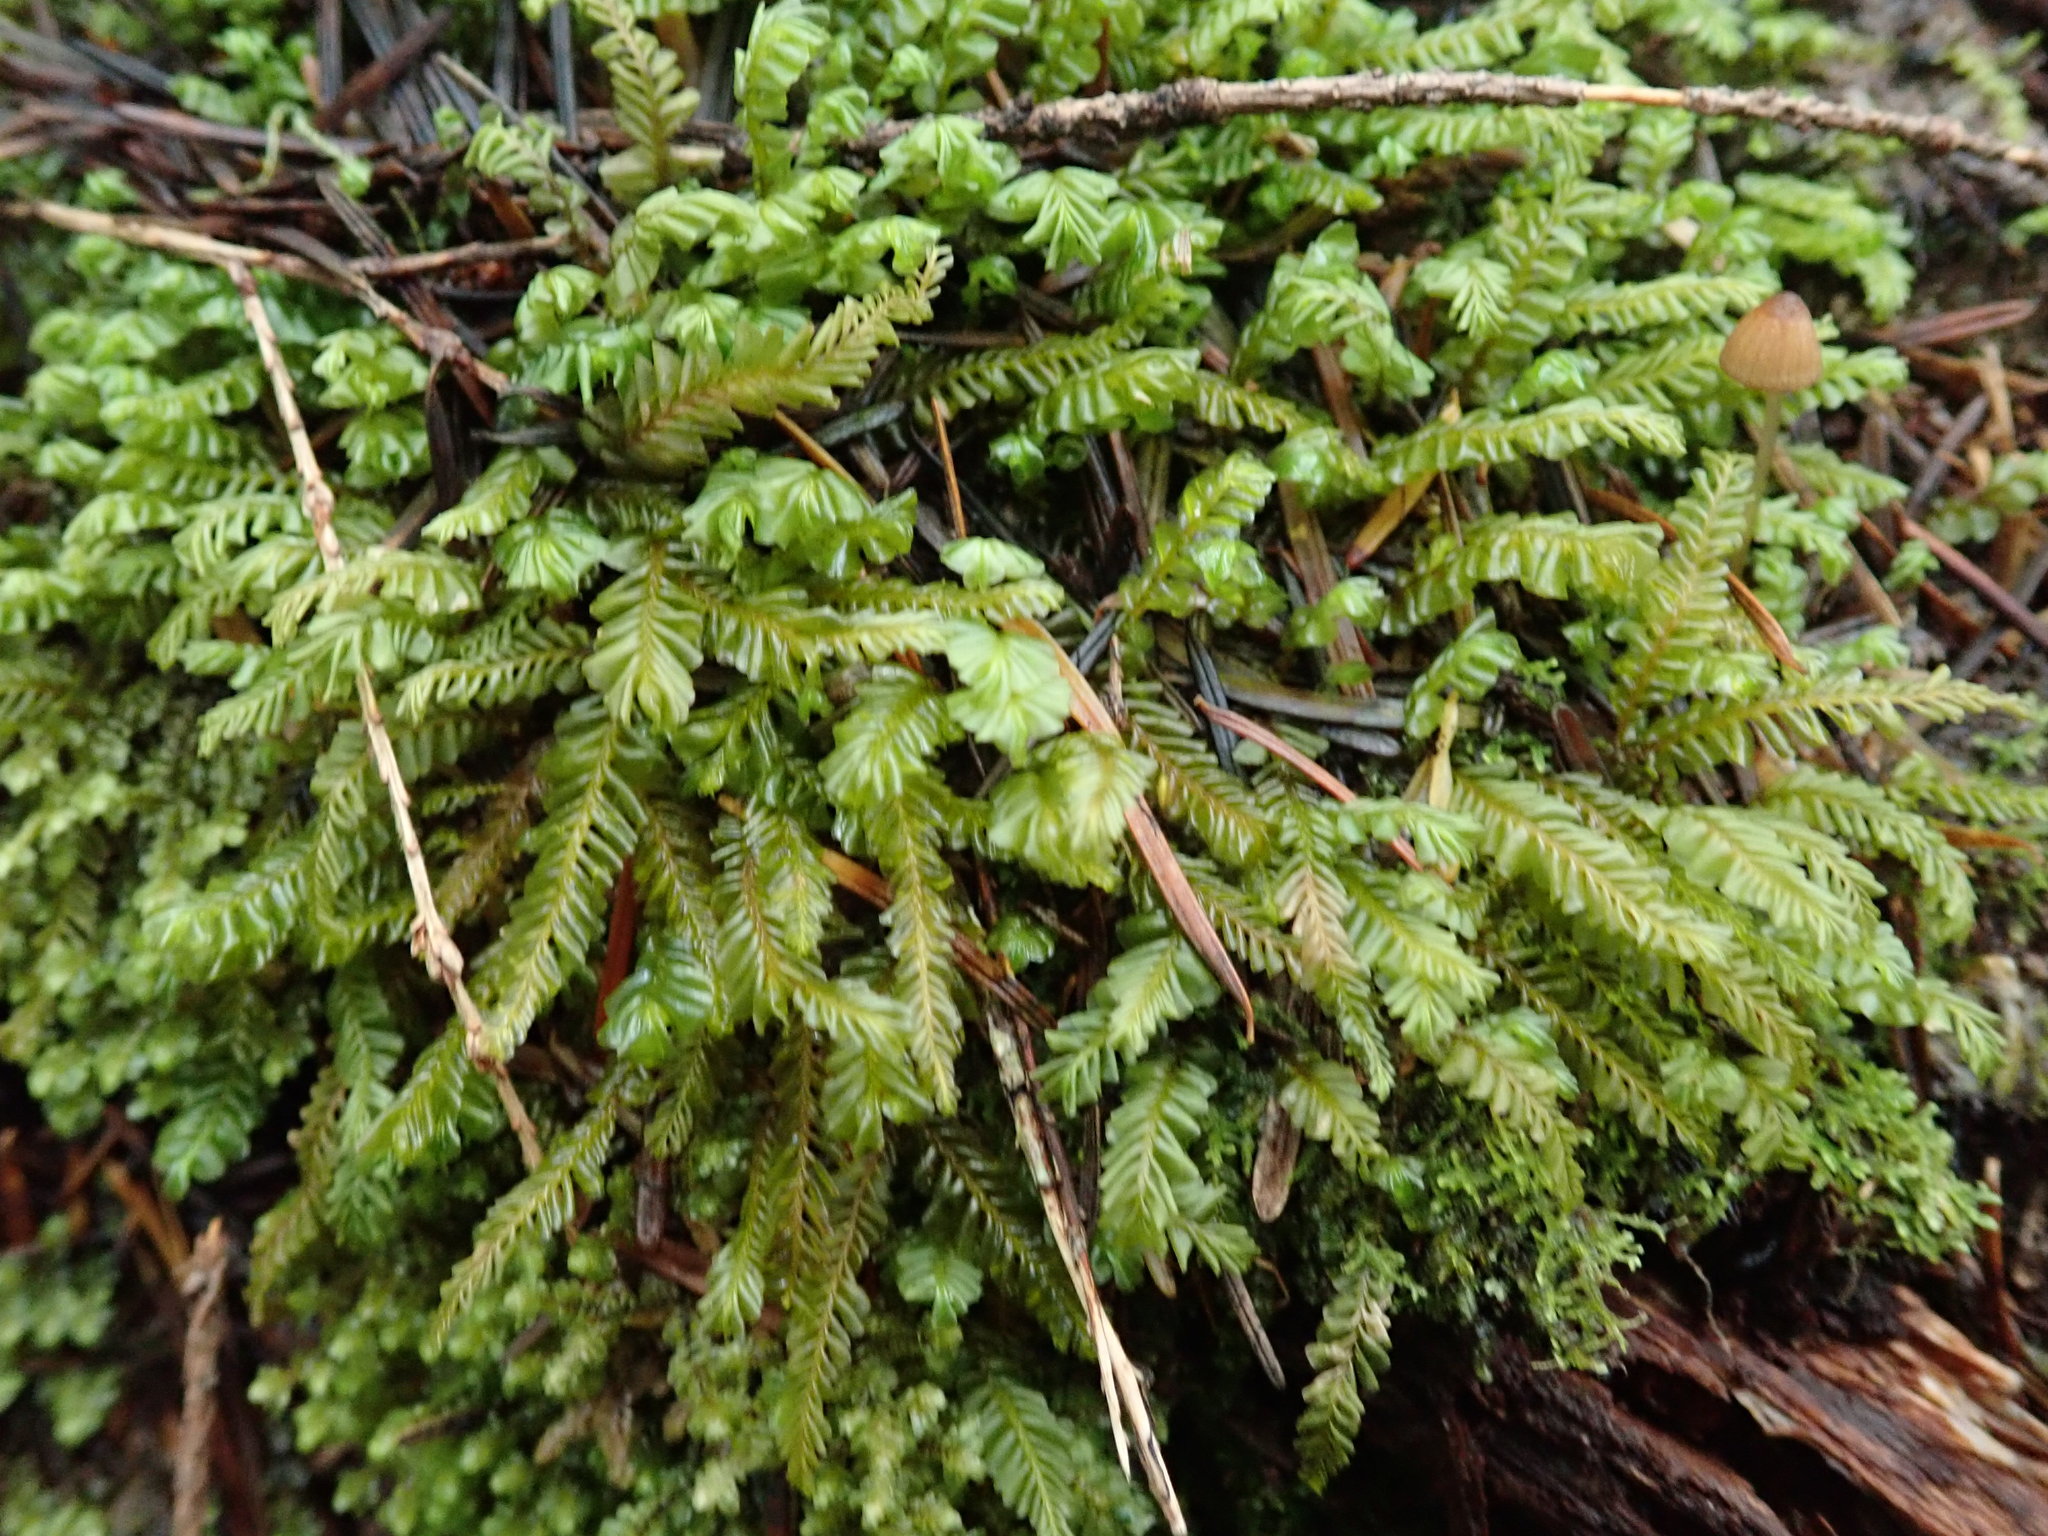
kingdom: Plantae
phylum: Marchantiophyta
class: Jungermanniopsida
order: Jungermanniales
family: Plagiochilaceae
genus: Plagiochila
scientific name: Plagiochila porelloides
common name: Lesser featherwort
